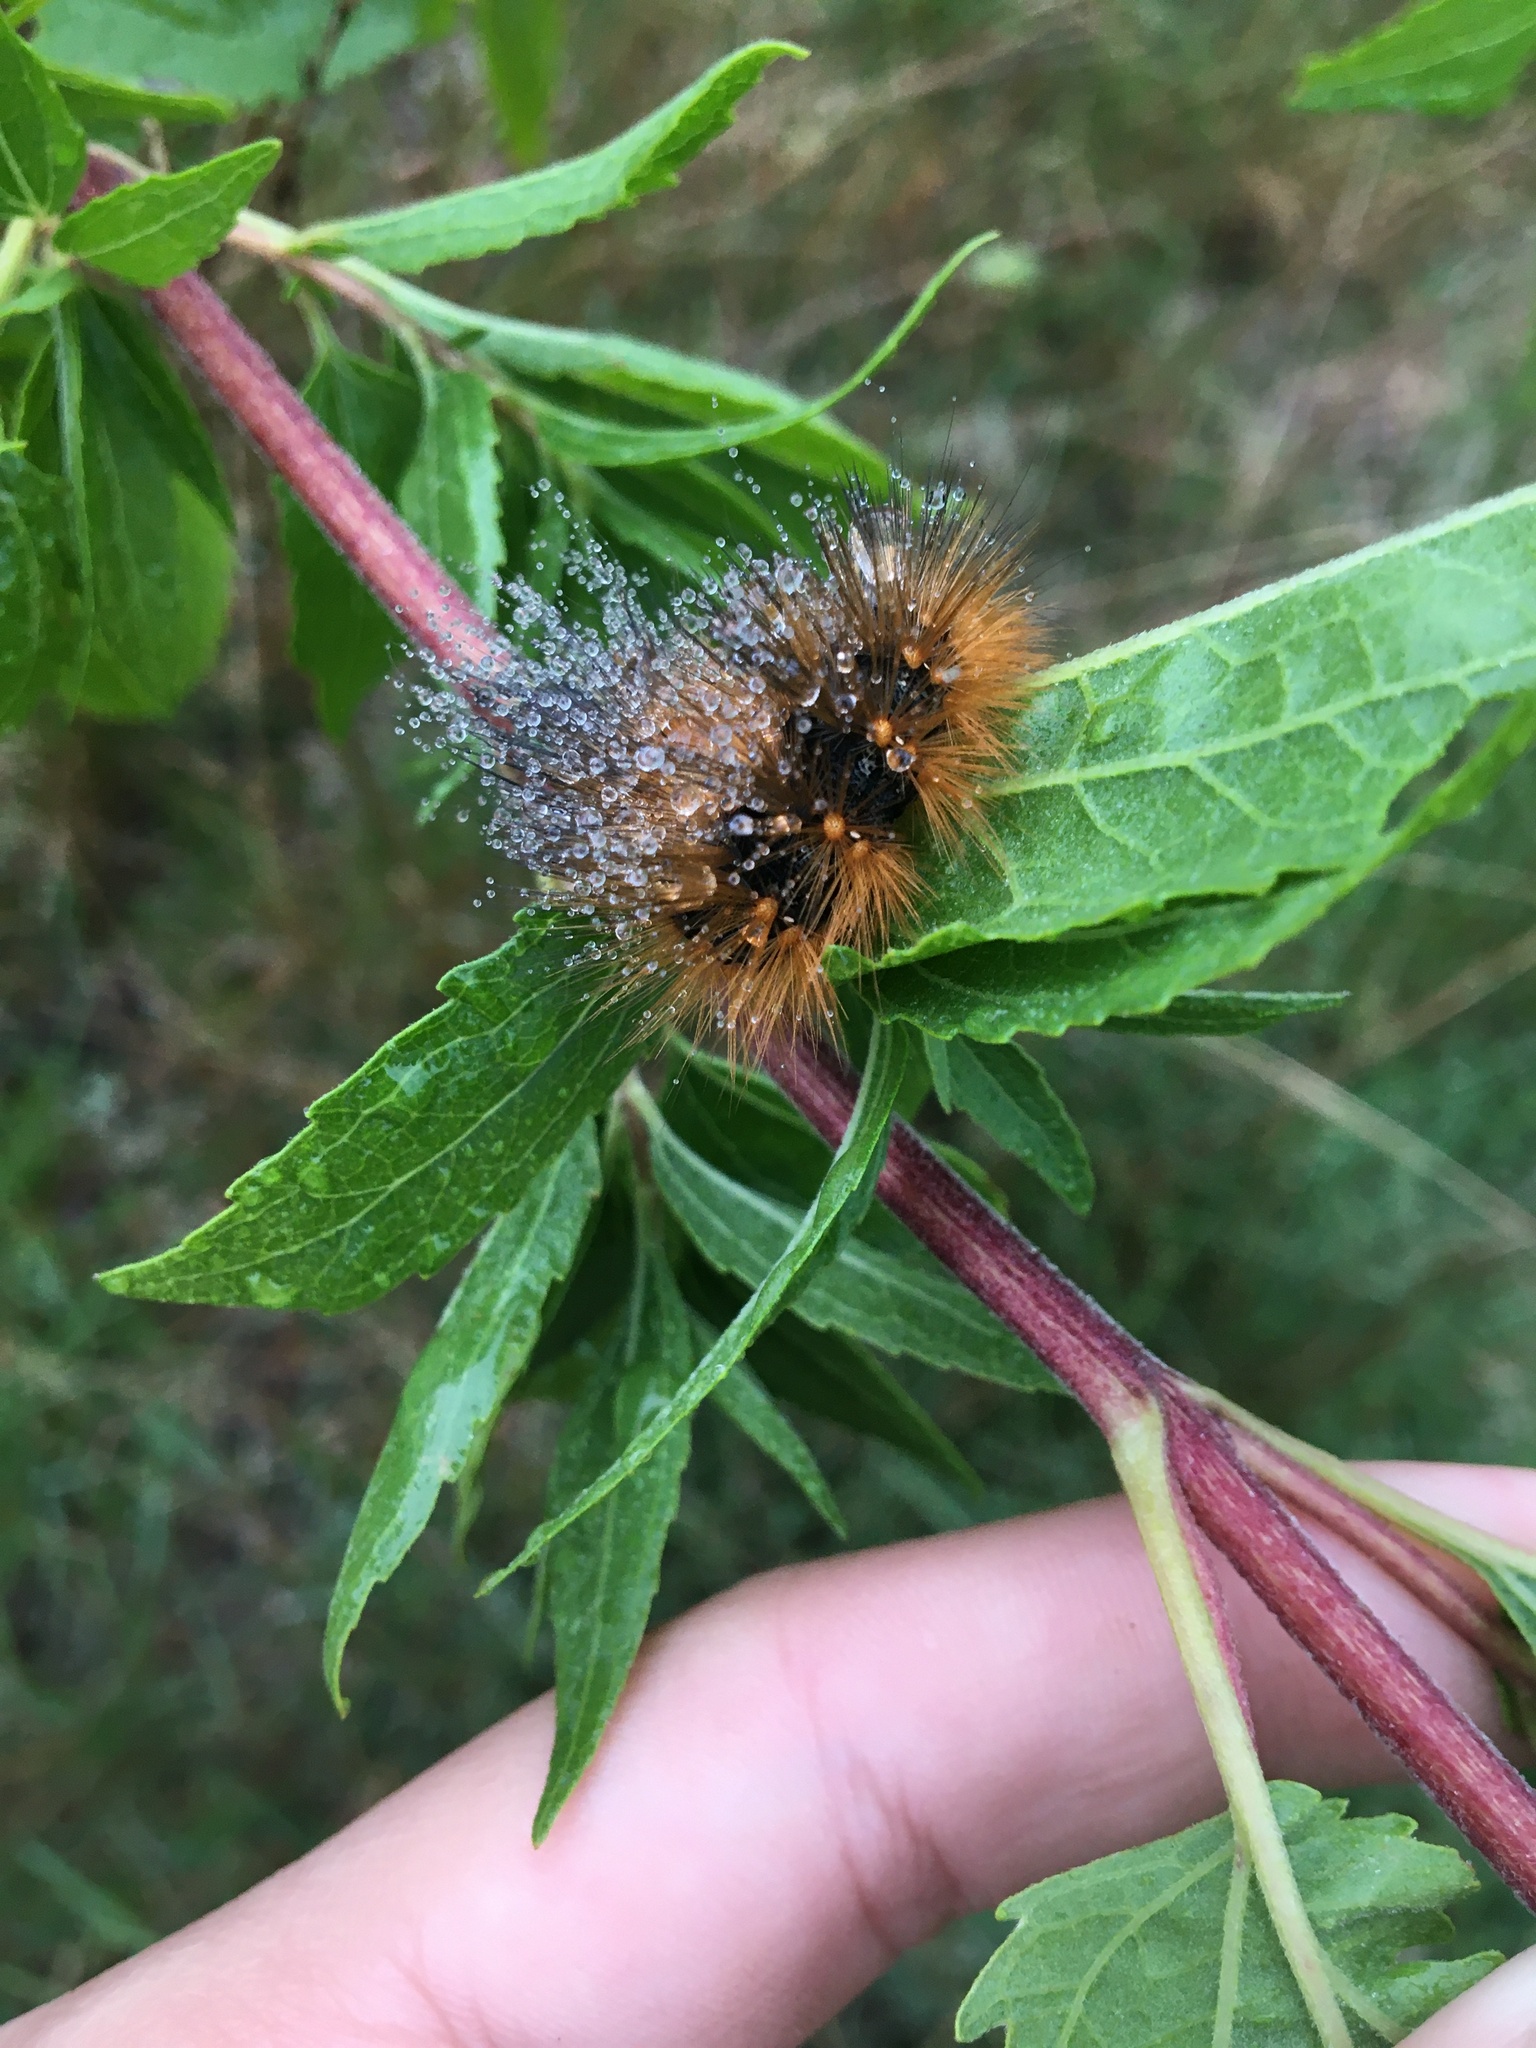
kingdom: Animalia
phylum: Arthropoda
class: Insecta
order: Lepidoptera
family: Erebidae
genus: Estigmene
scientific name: Estigmene acrea
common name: Salt marsh moth
